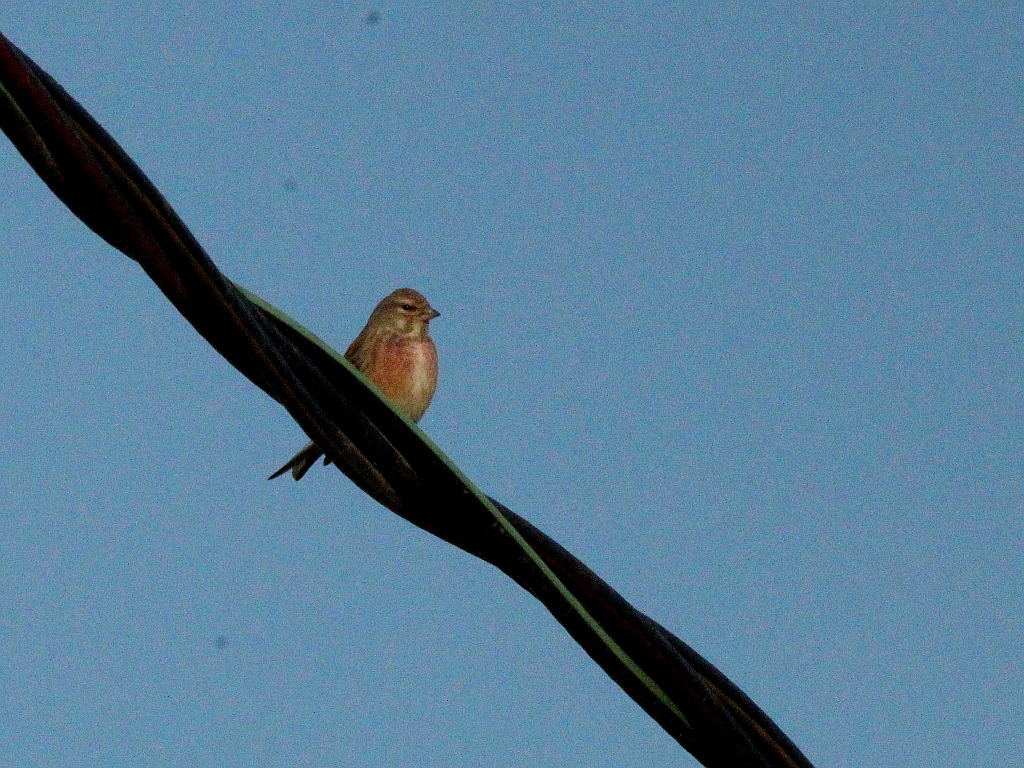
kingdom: Animalia
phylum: Chordata
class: Aves
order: Passeriformes
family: Fringillidae
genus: Linaria
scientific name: Linaria cannabina
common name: Common linnet
